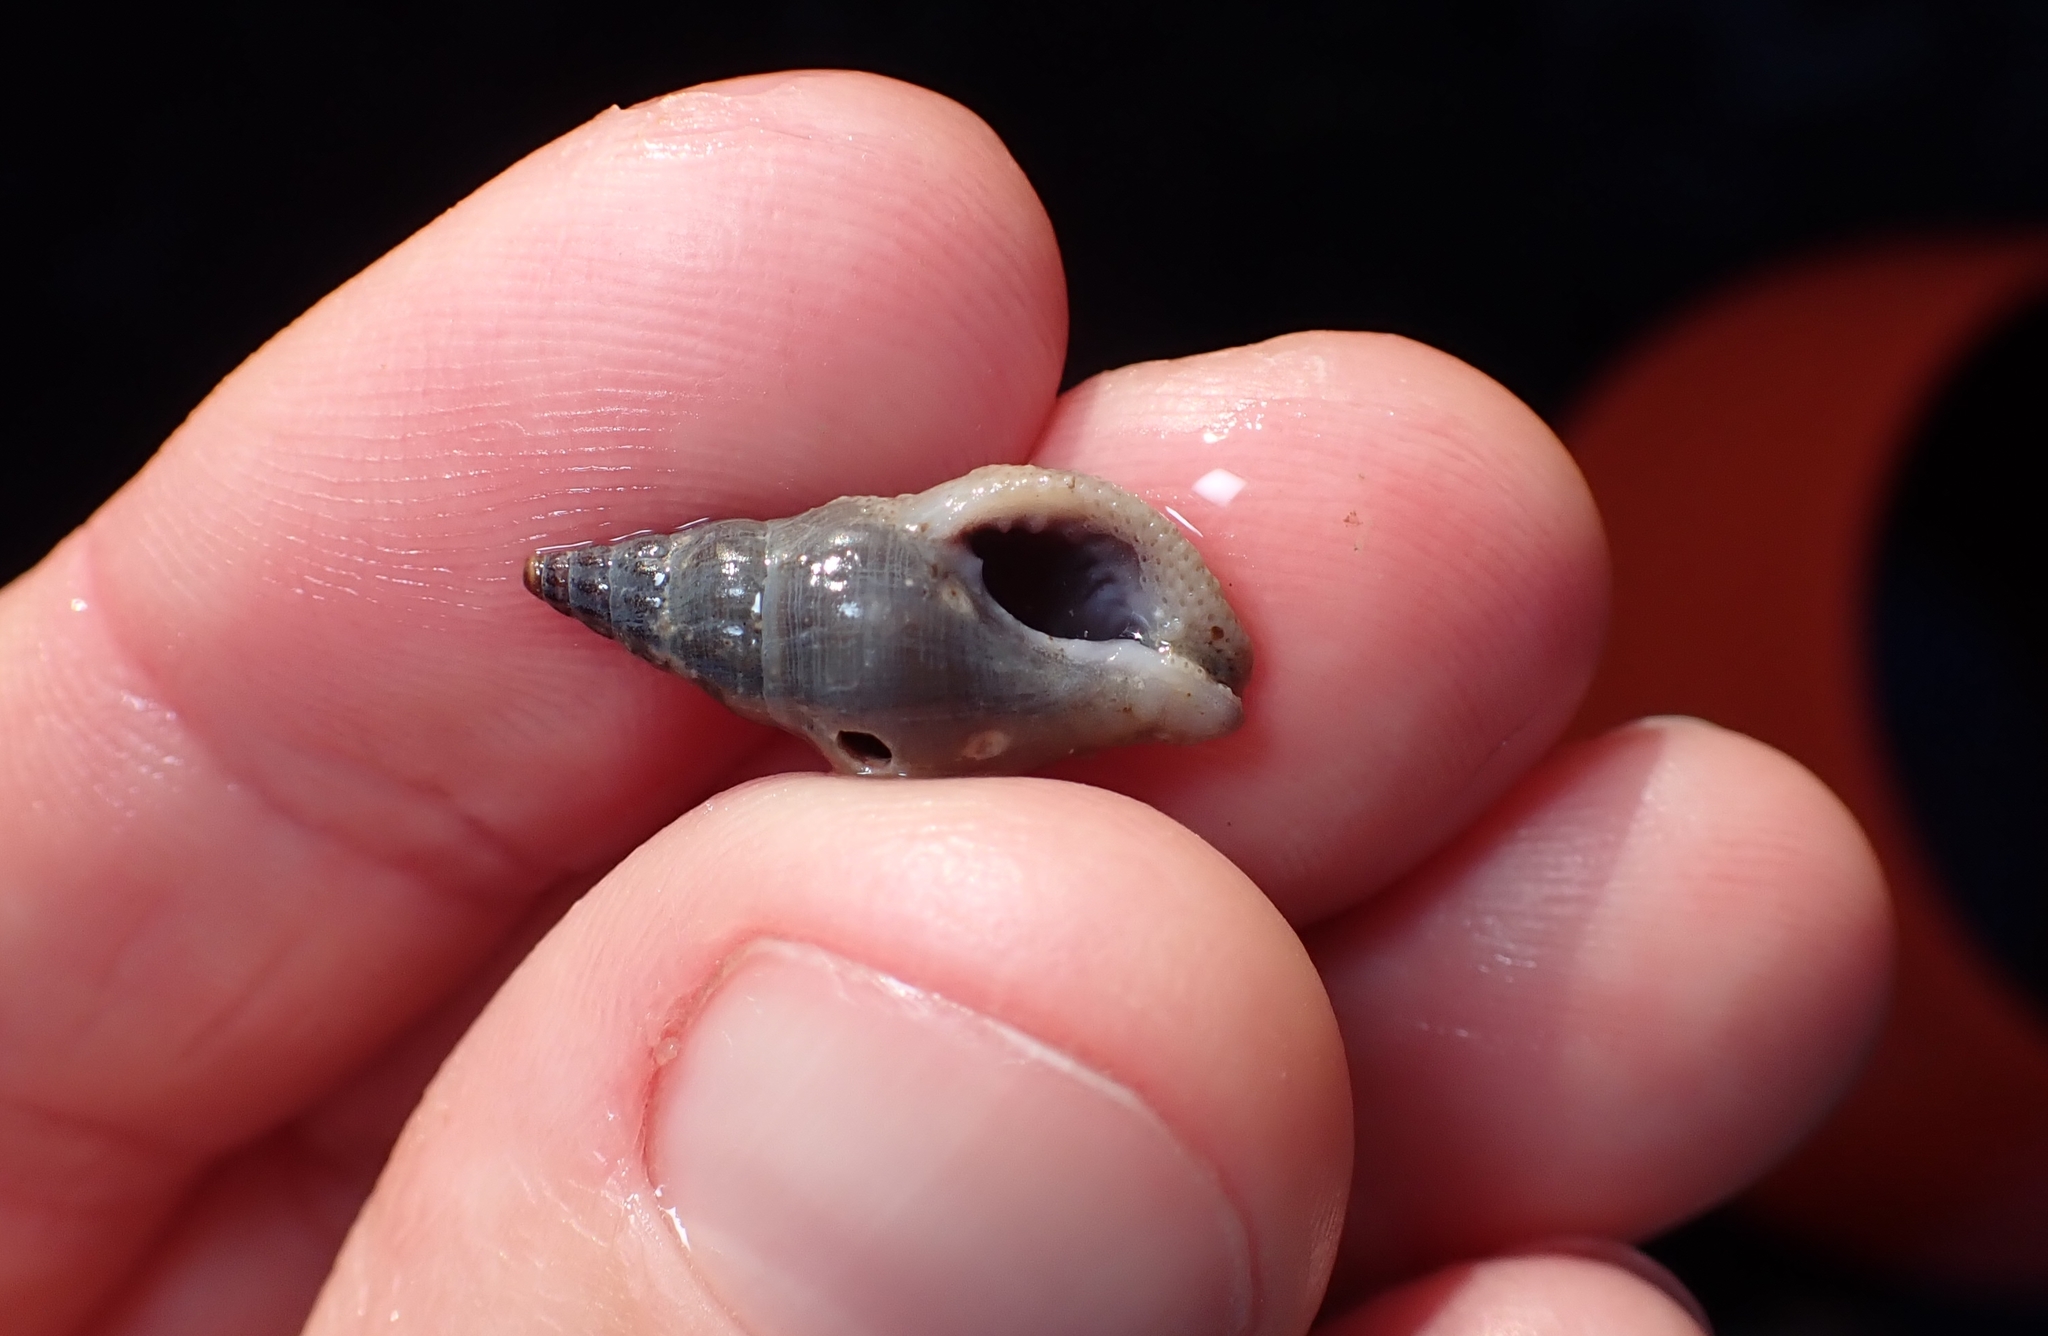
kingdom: Animalia
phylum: Mollusca
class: Gastropoda
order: Neogastropoda
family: Tudiclidae
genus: Buccinulum
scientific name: Buccinulum littorinoides
